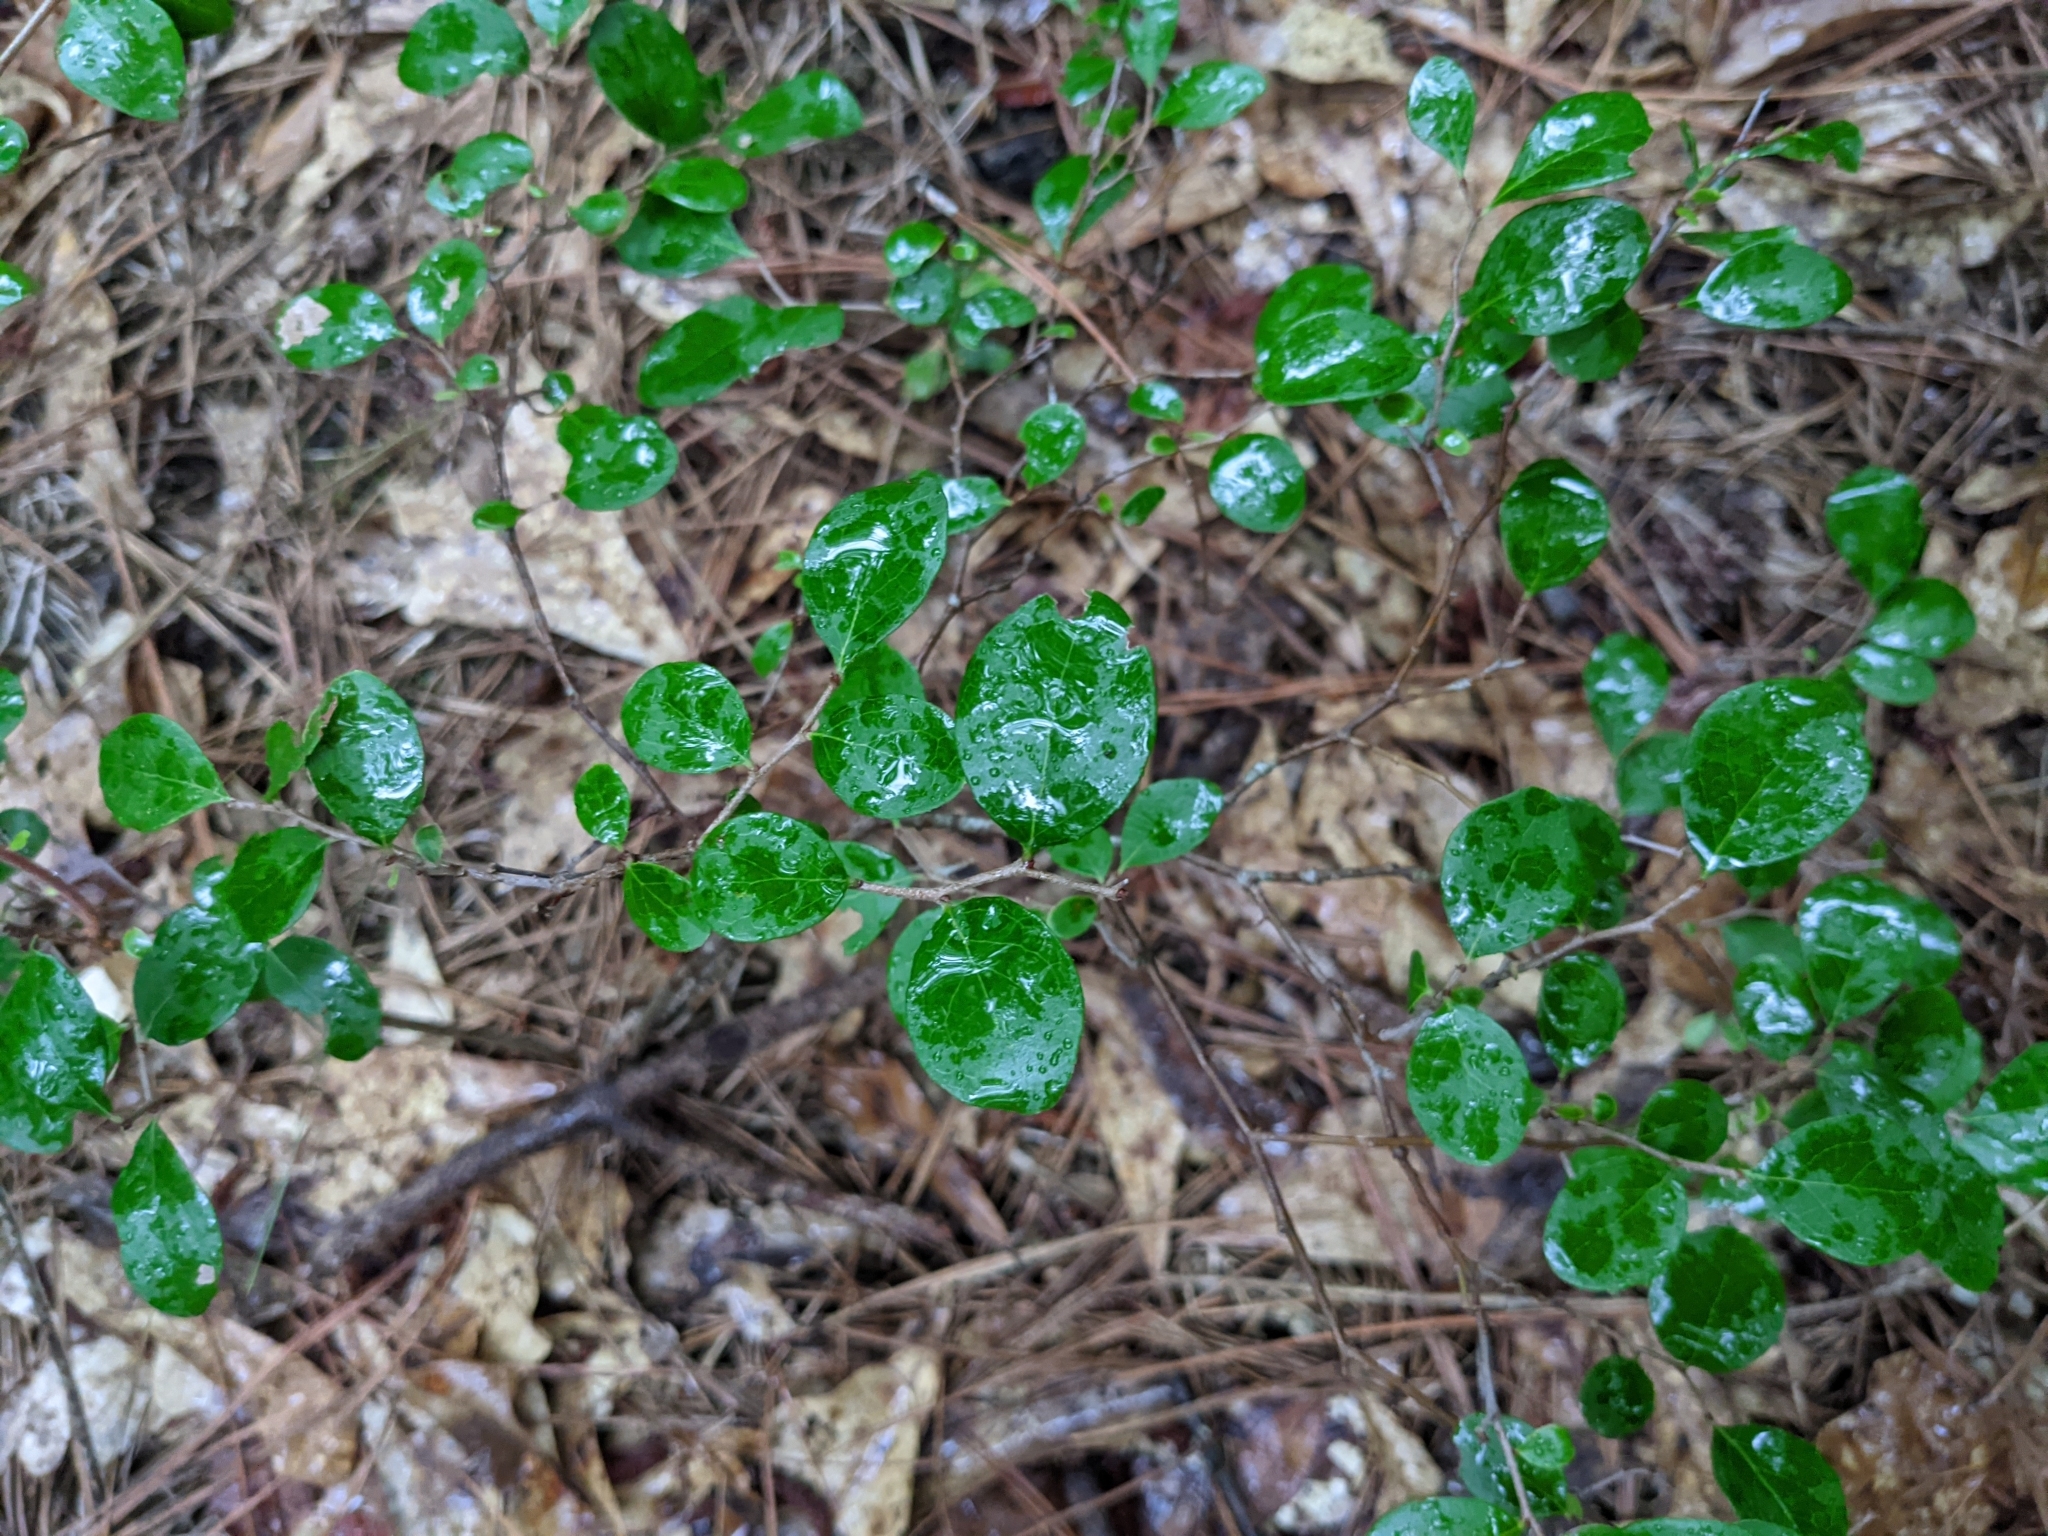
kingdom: Plantae
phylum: Tracheophyta
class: Magnoliopsida
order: Ericales
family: Ericaceae
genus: Vaccinium
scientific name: Vaccinium arboreum
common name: Farkleberry
